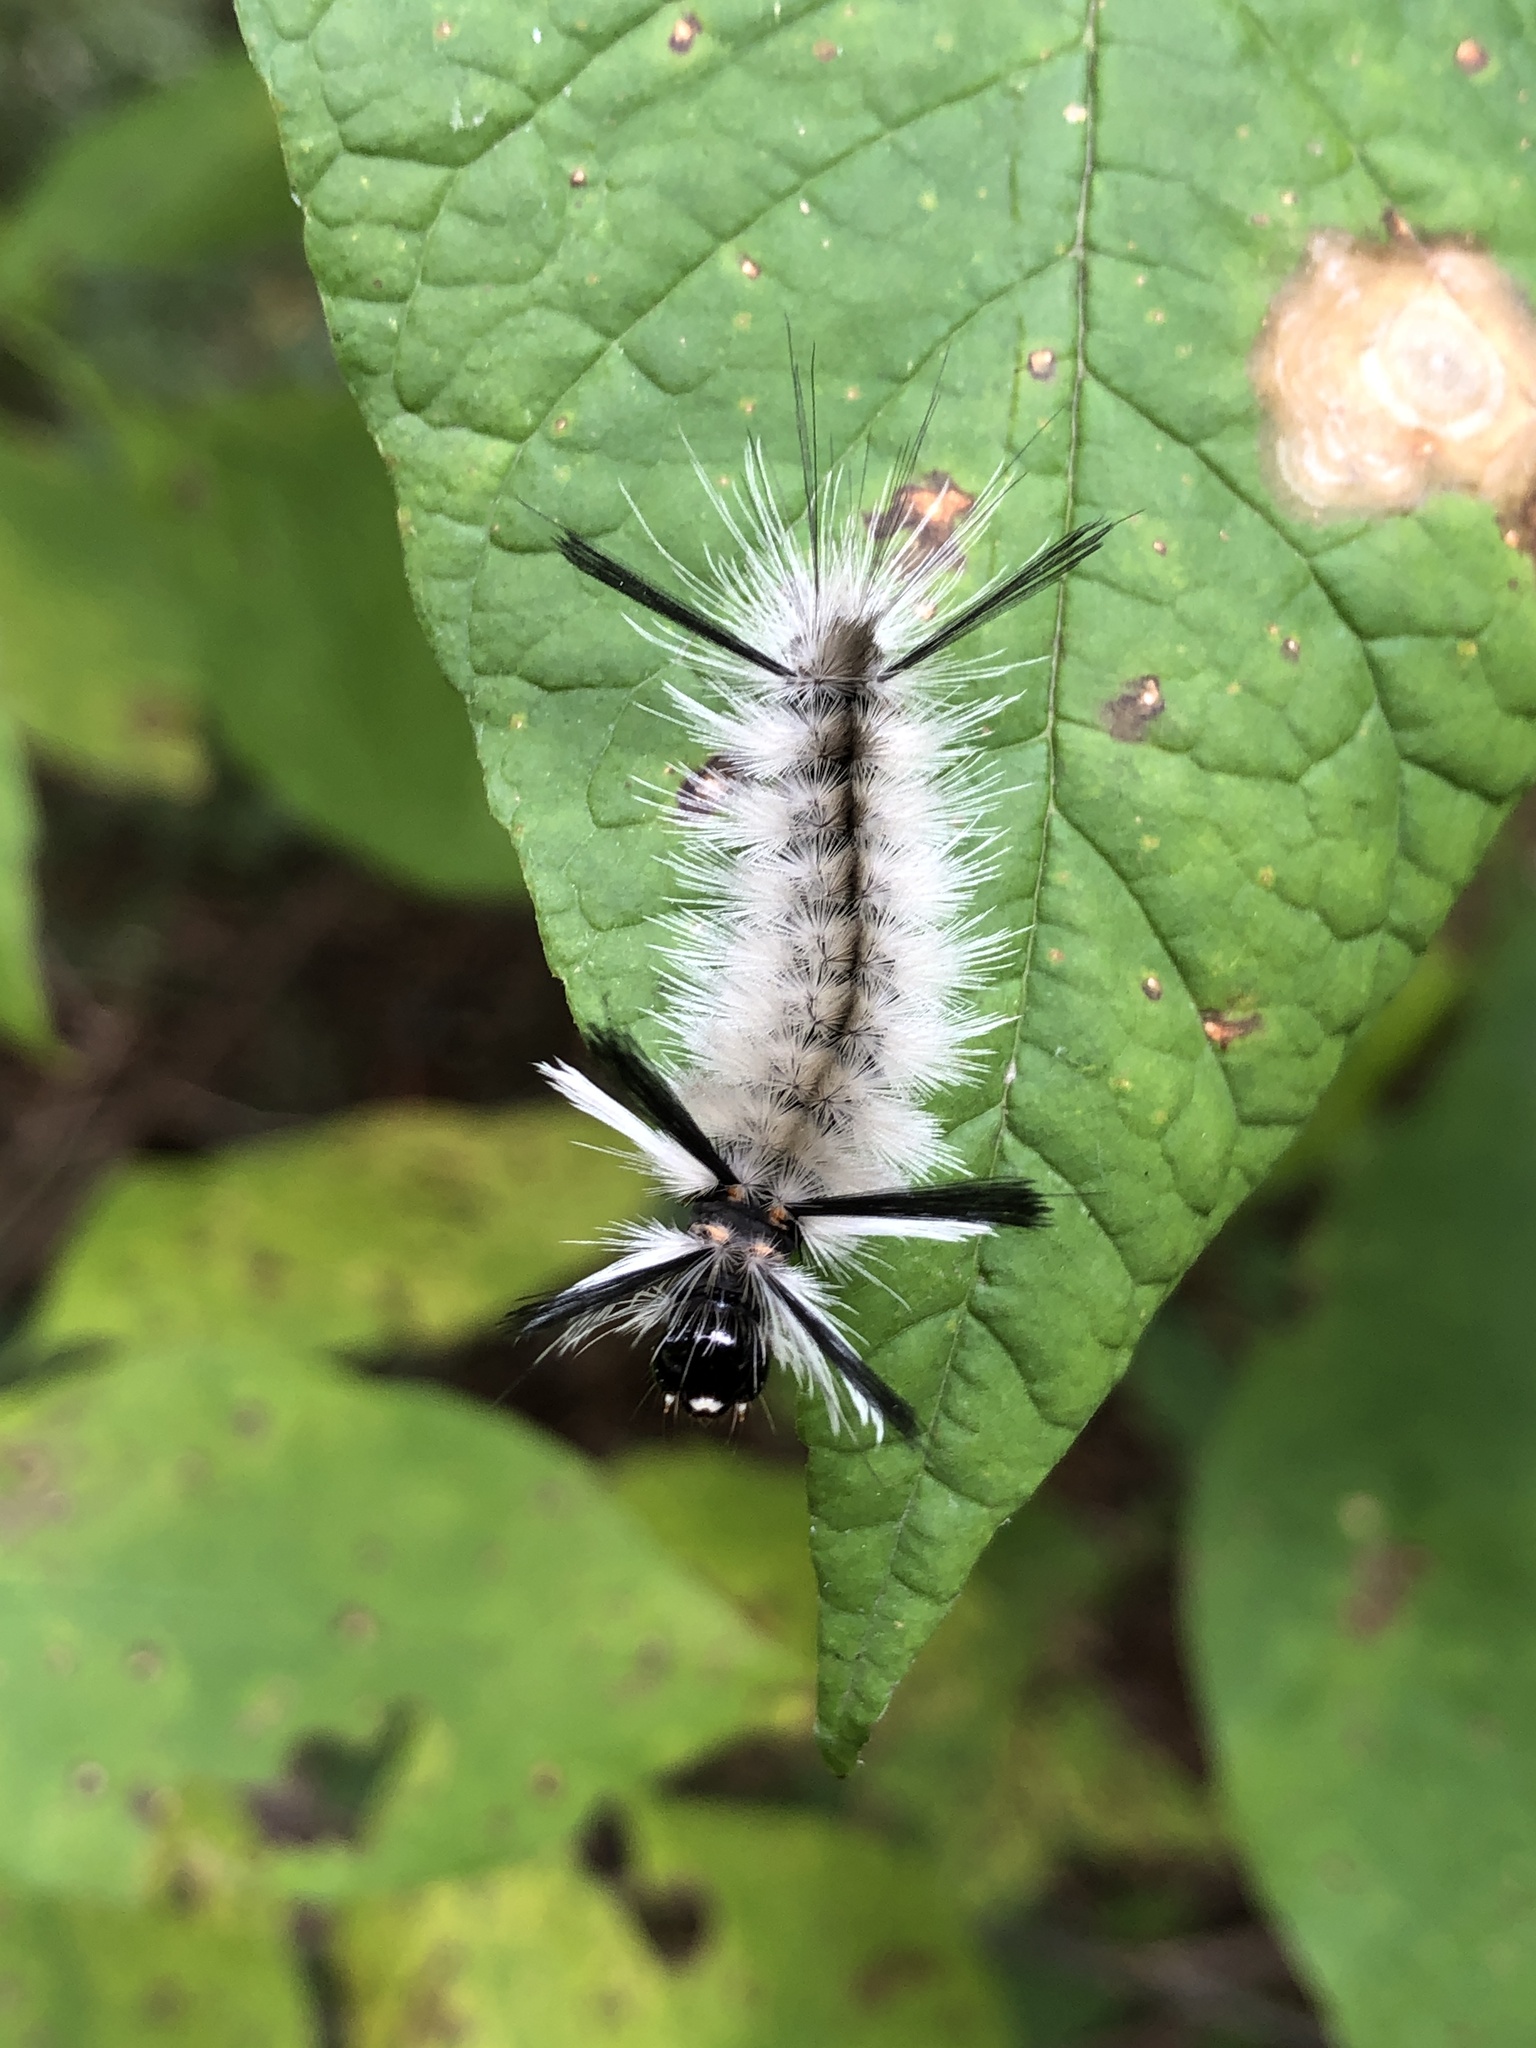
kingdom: Animalia
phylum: Arthropoda
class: Insecta
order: Lepidoptera
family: Erebidae
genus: Halysidota
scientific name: Halysidota tessellaris
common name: Banded tussock moth
